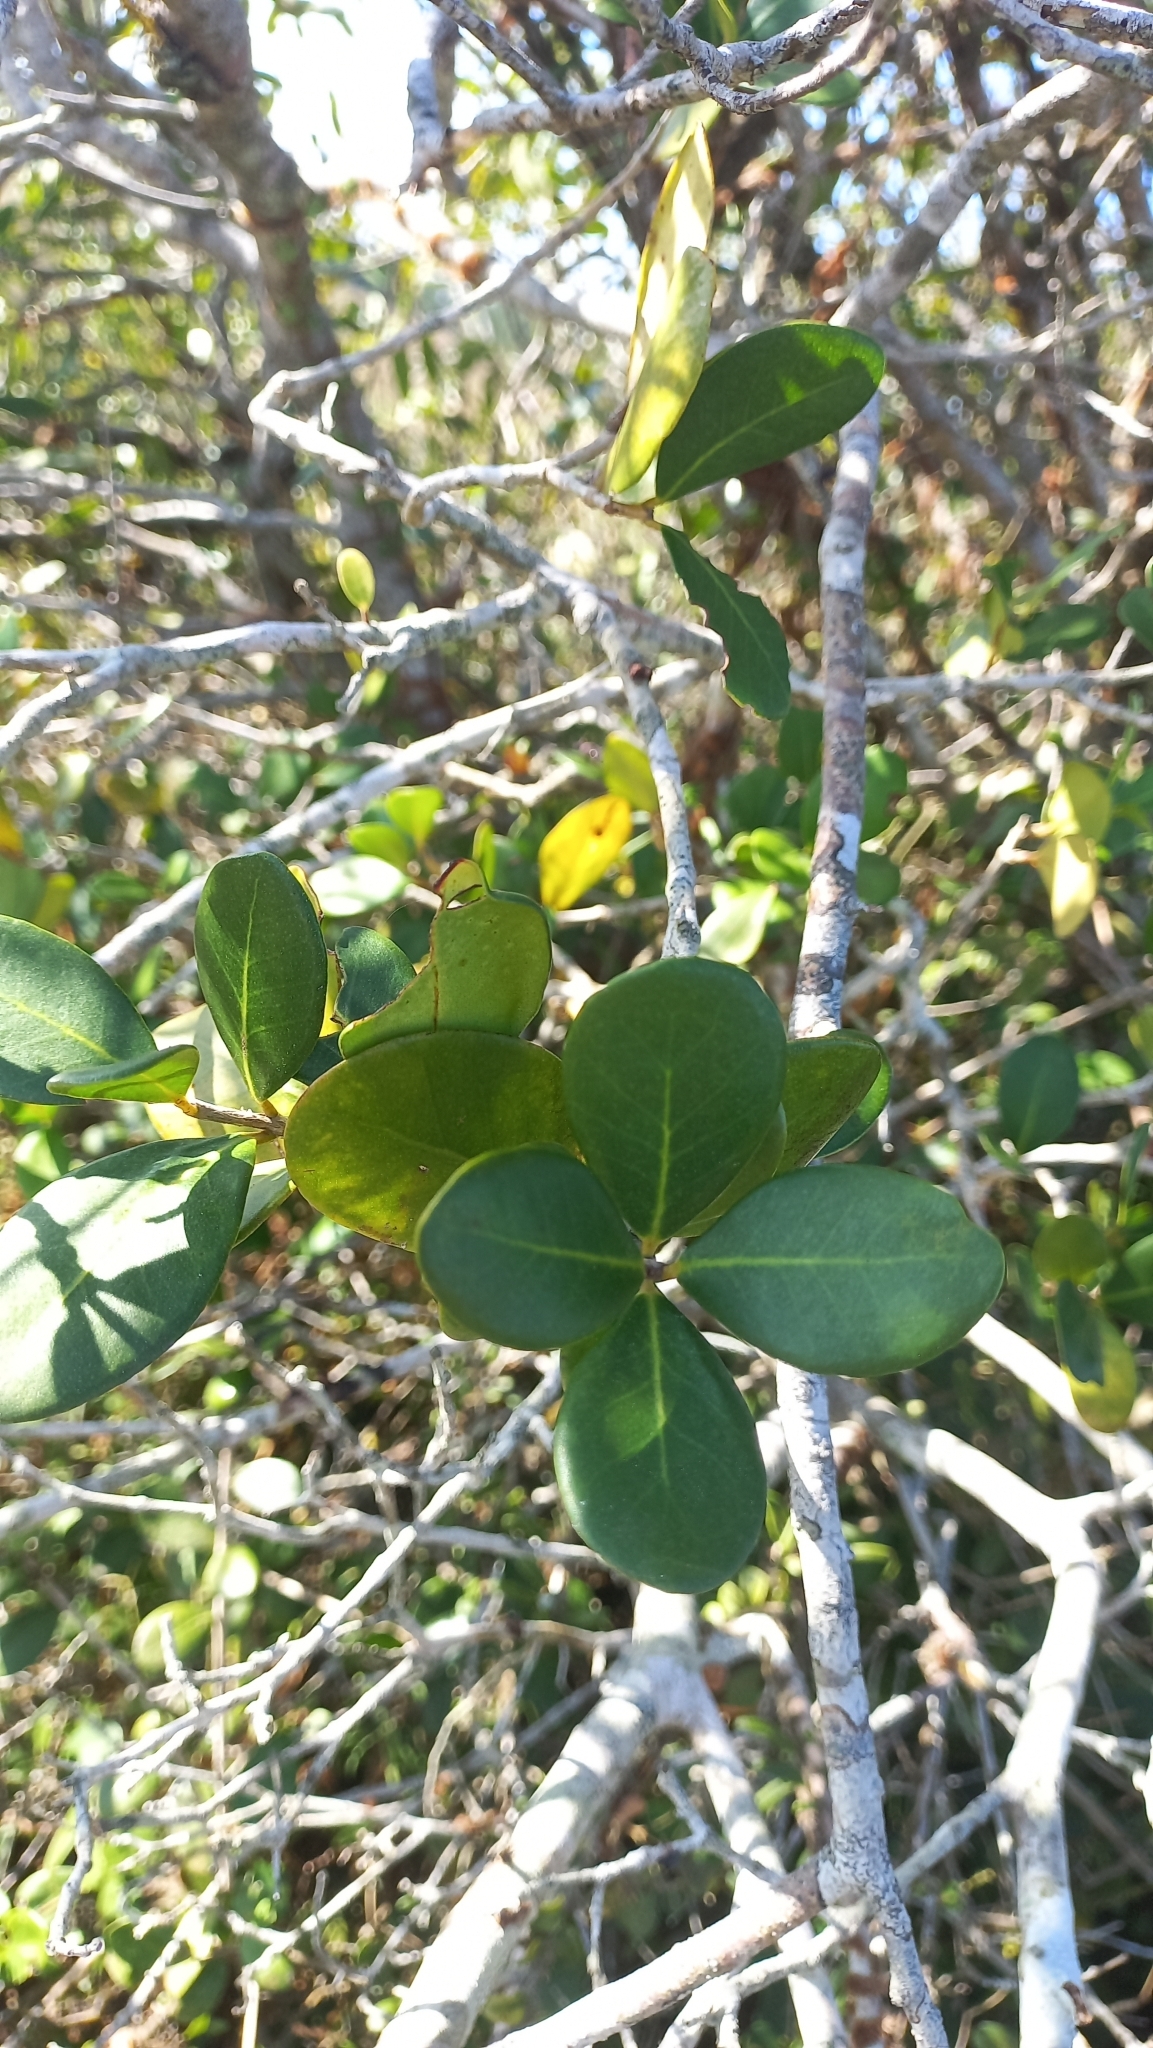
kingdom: Plantae
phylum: Tracheophyta
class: Magnoliopsida
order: Myrtales
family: Myrtaceae
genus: Eugenia
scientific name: Eugenia catharinae
